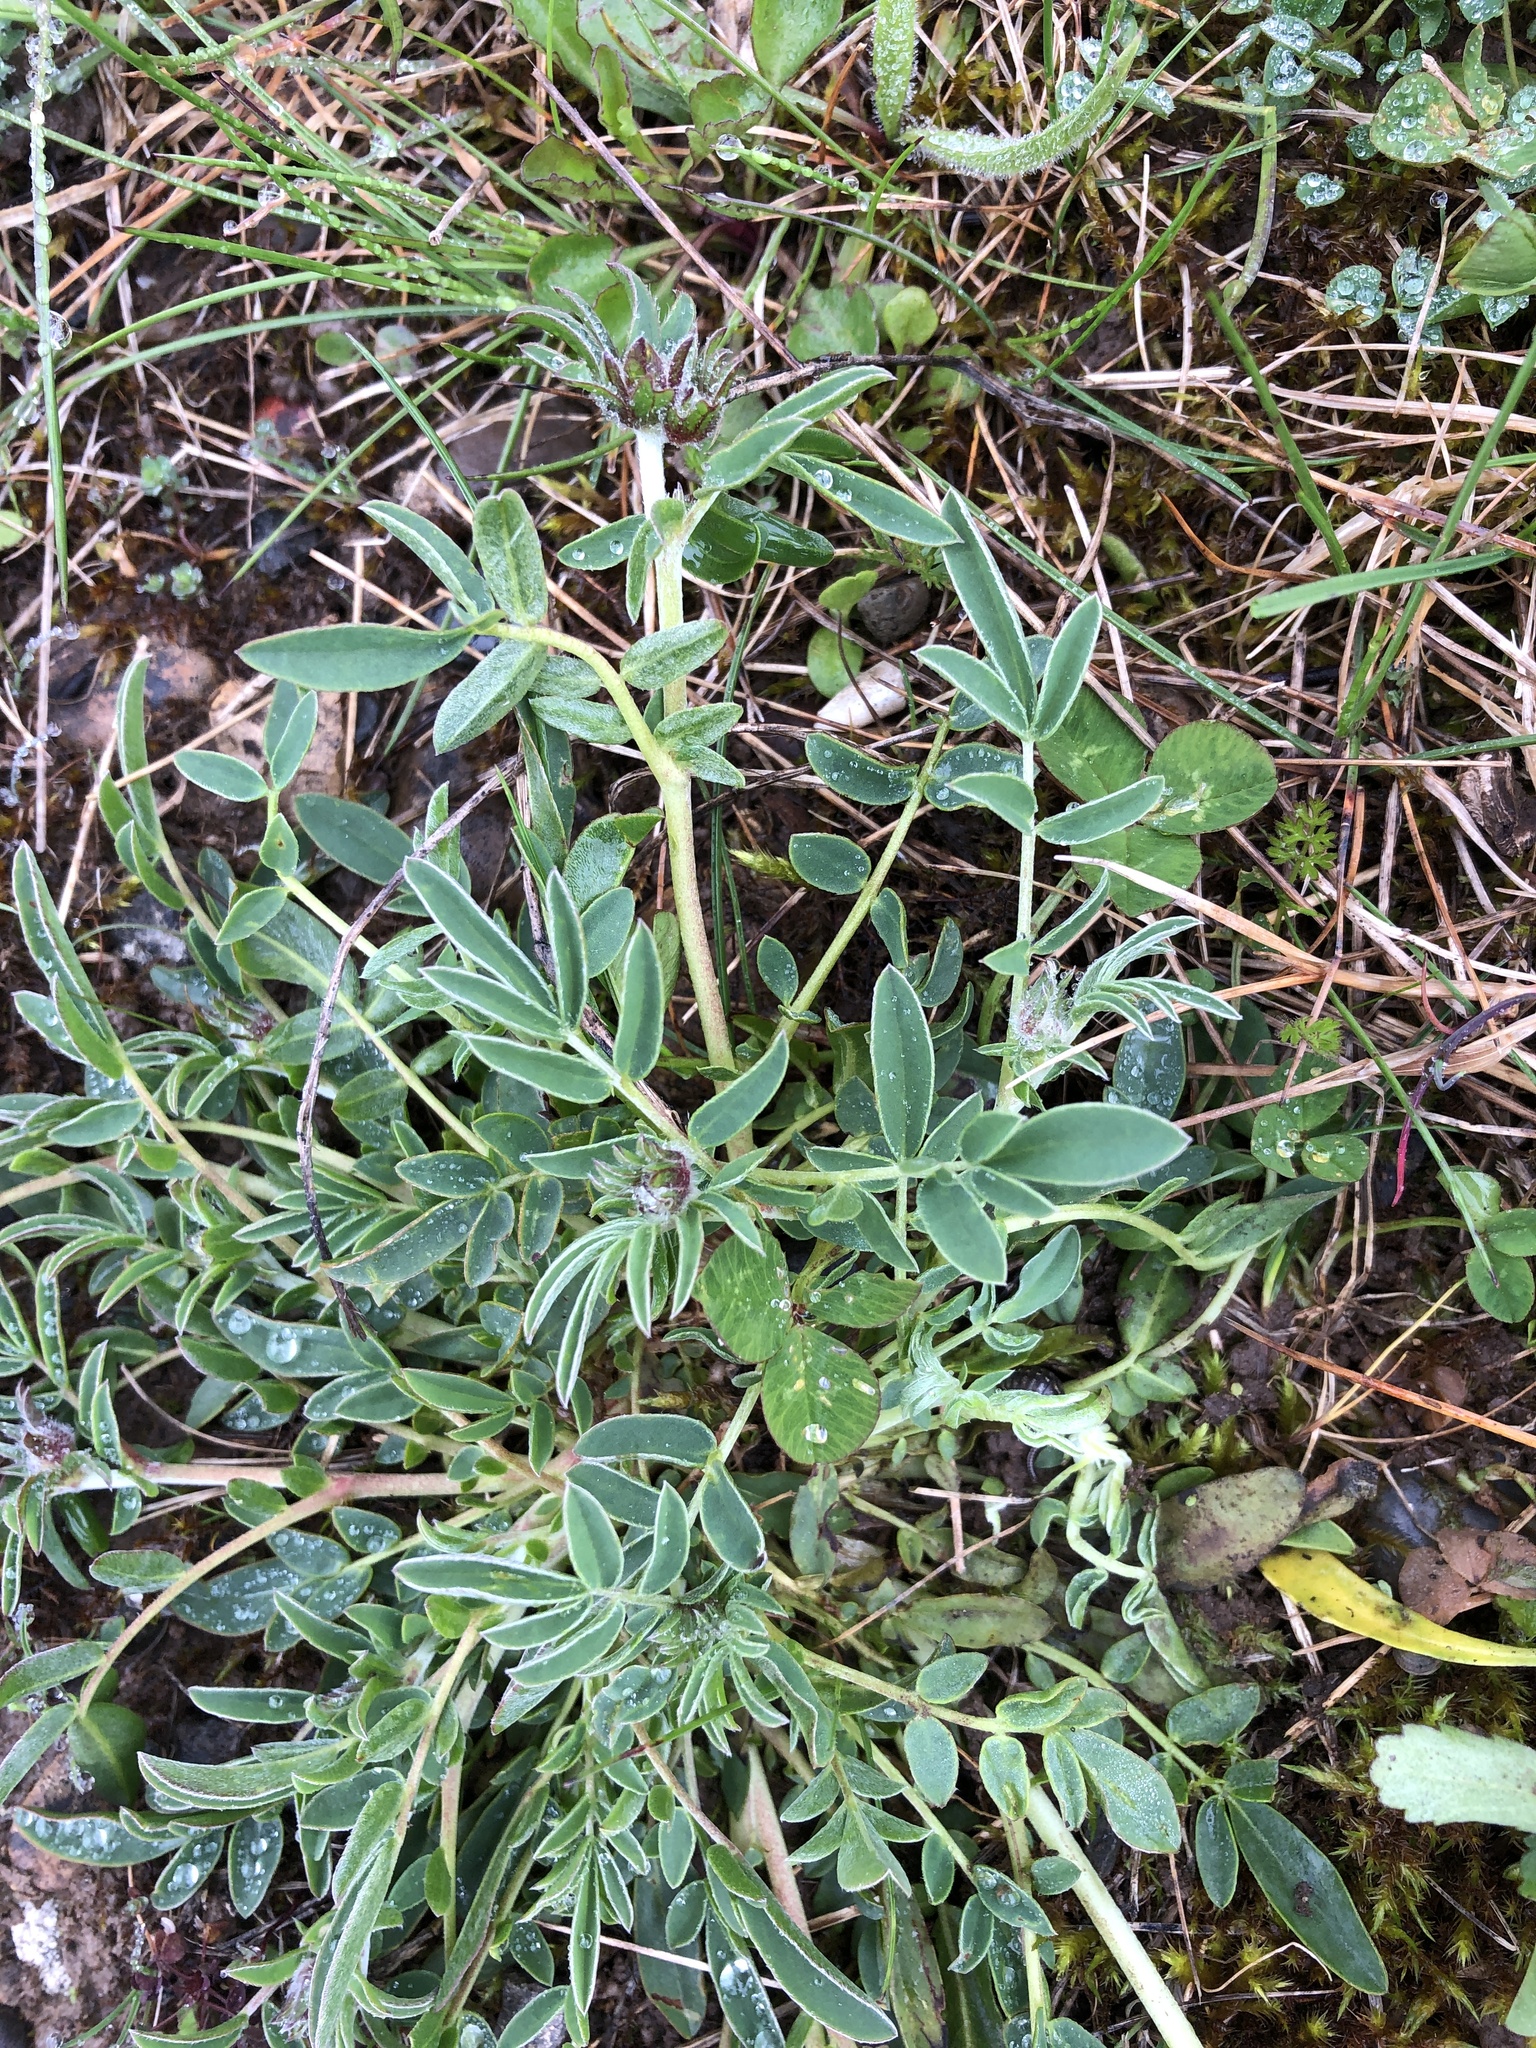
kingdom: Plantae
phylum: Tracheophyta
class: Magnoliopsida
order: Fabales
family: Fabaceae
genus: Anthyllis
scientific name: Anthyllis vulneraria
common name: Kidney vetch
